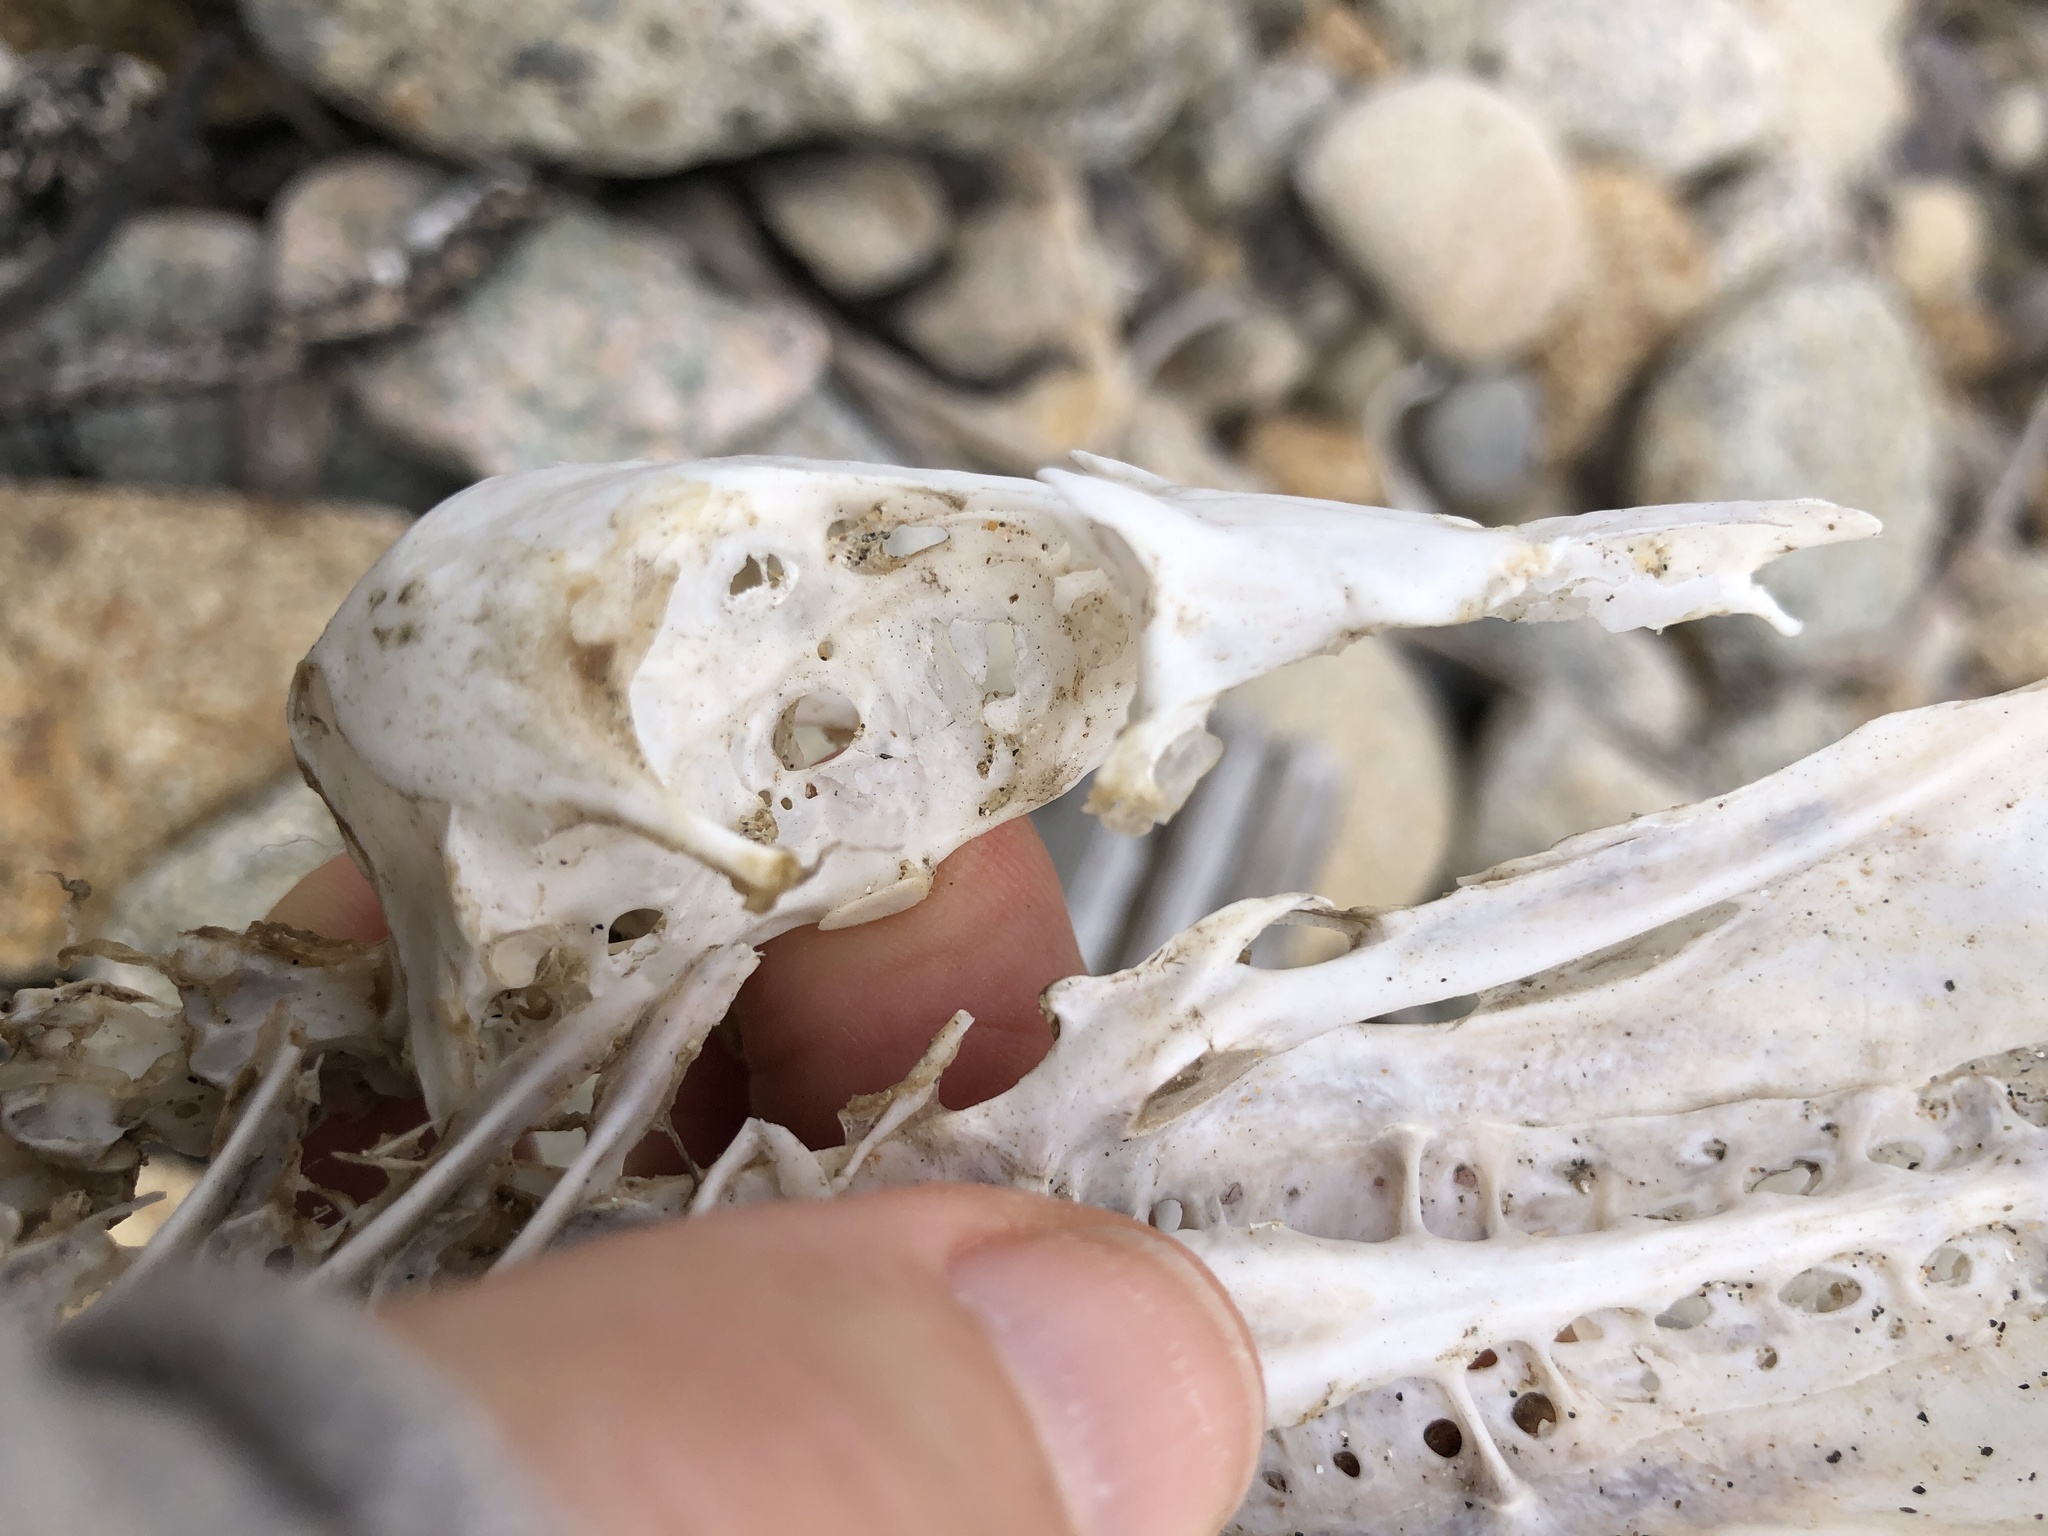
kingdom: Animalia
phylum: Chordata
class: Aves
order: Anseriformes
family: Anatidae
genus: Melanitta
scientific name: Melanitta americana
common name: Black scoter
